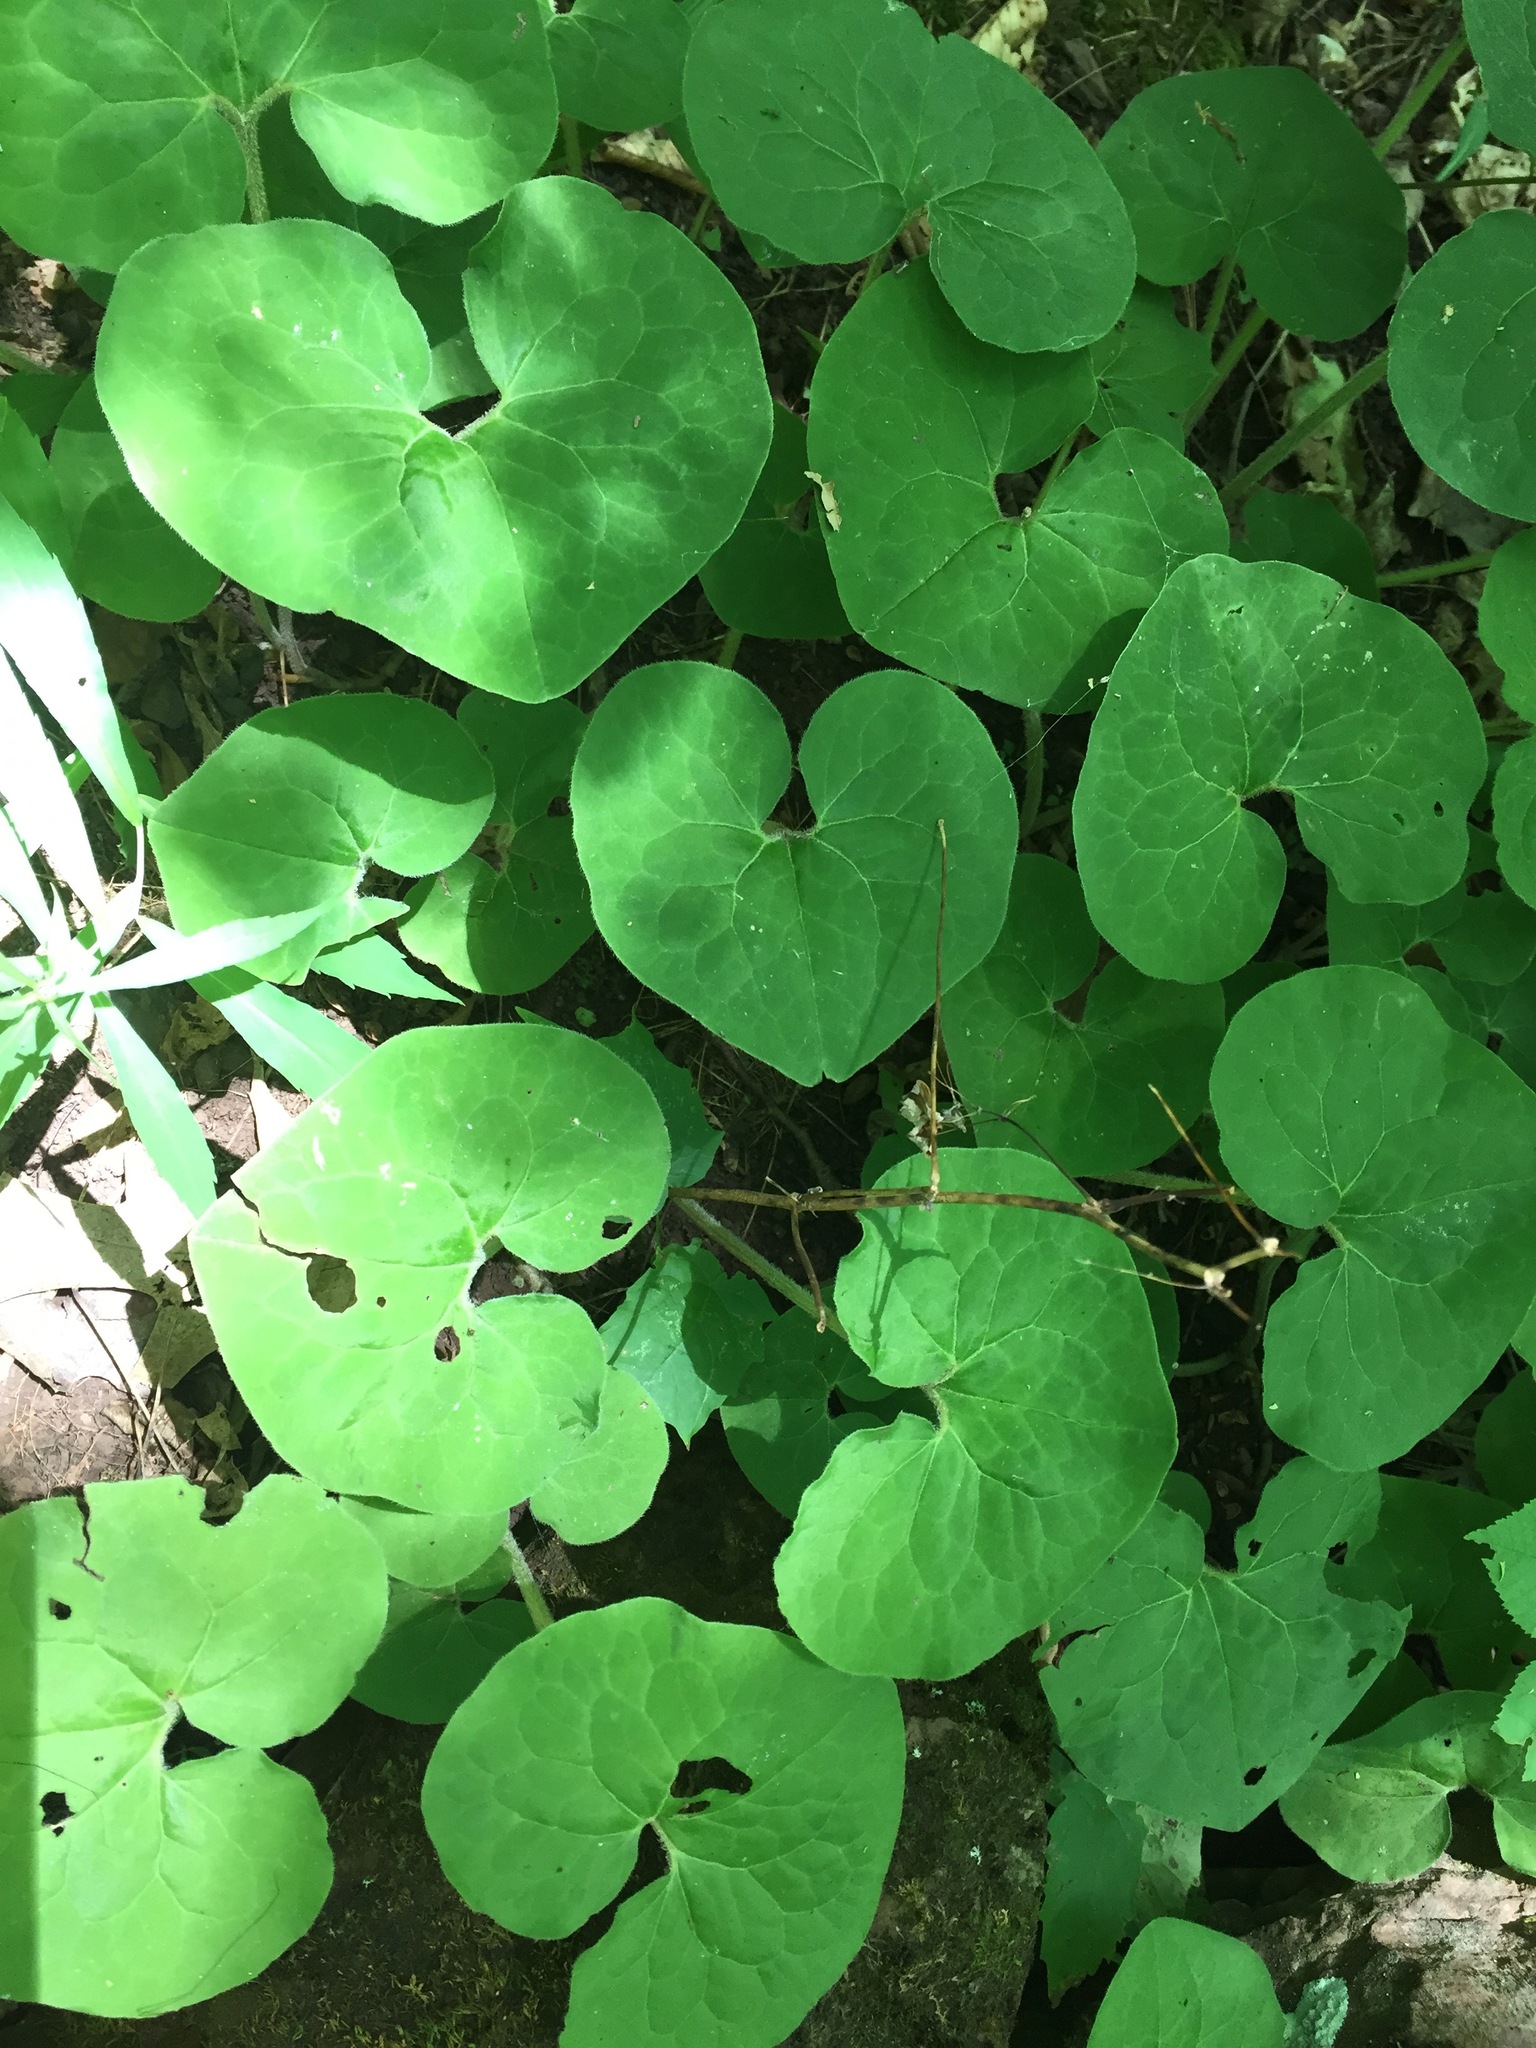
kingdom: Plantae
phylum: Tracheophyta
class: Magnoliopsida
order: Piperales
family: Aristolochiaceae
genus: Asarum
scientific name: Asarum canadense
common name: Wild ginger
